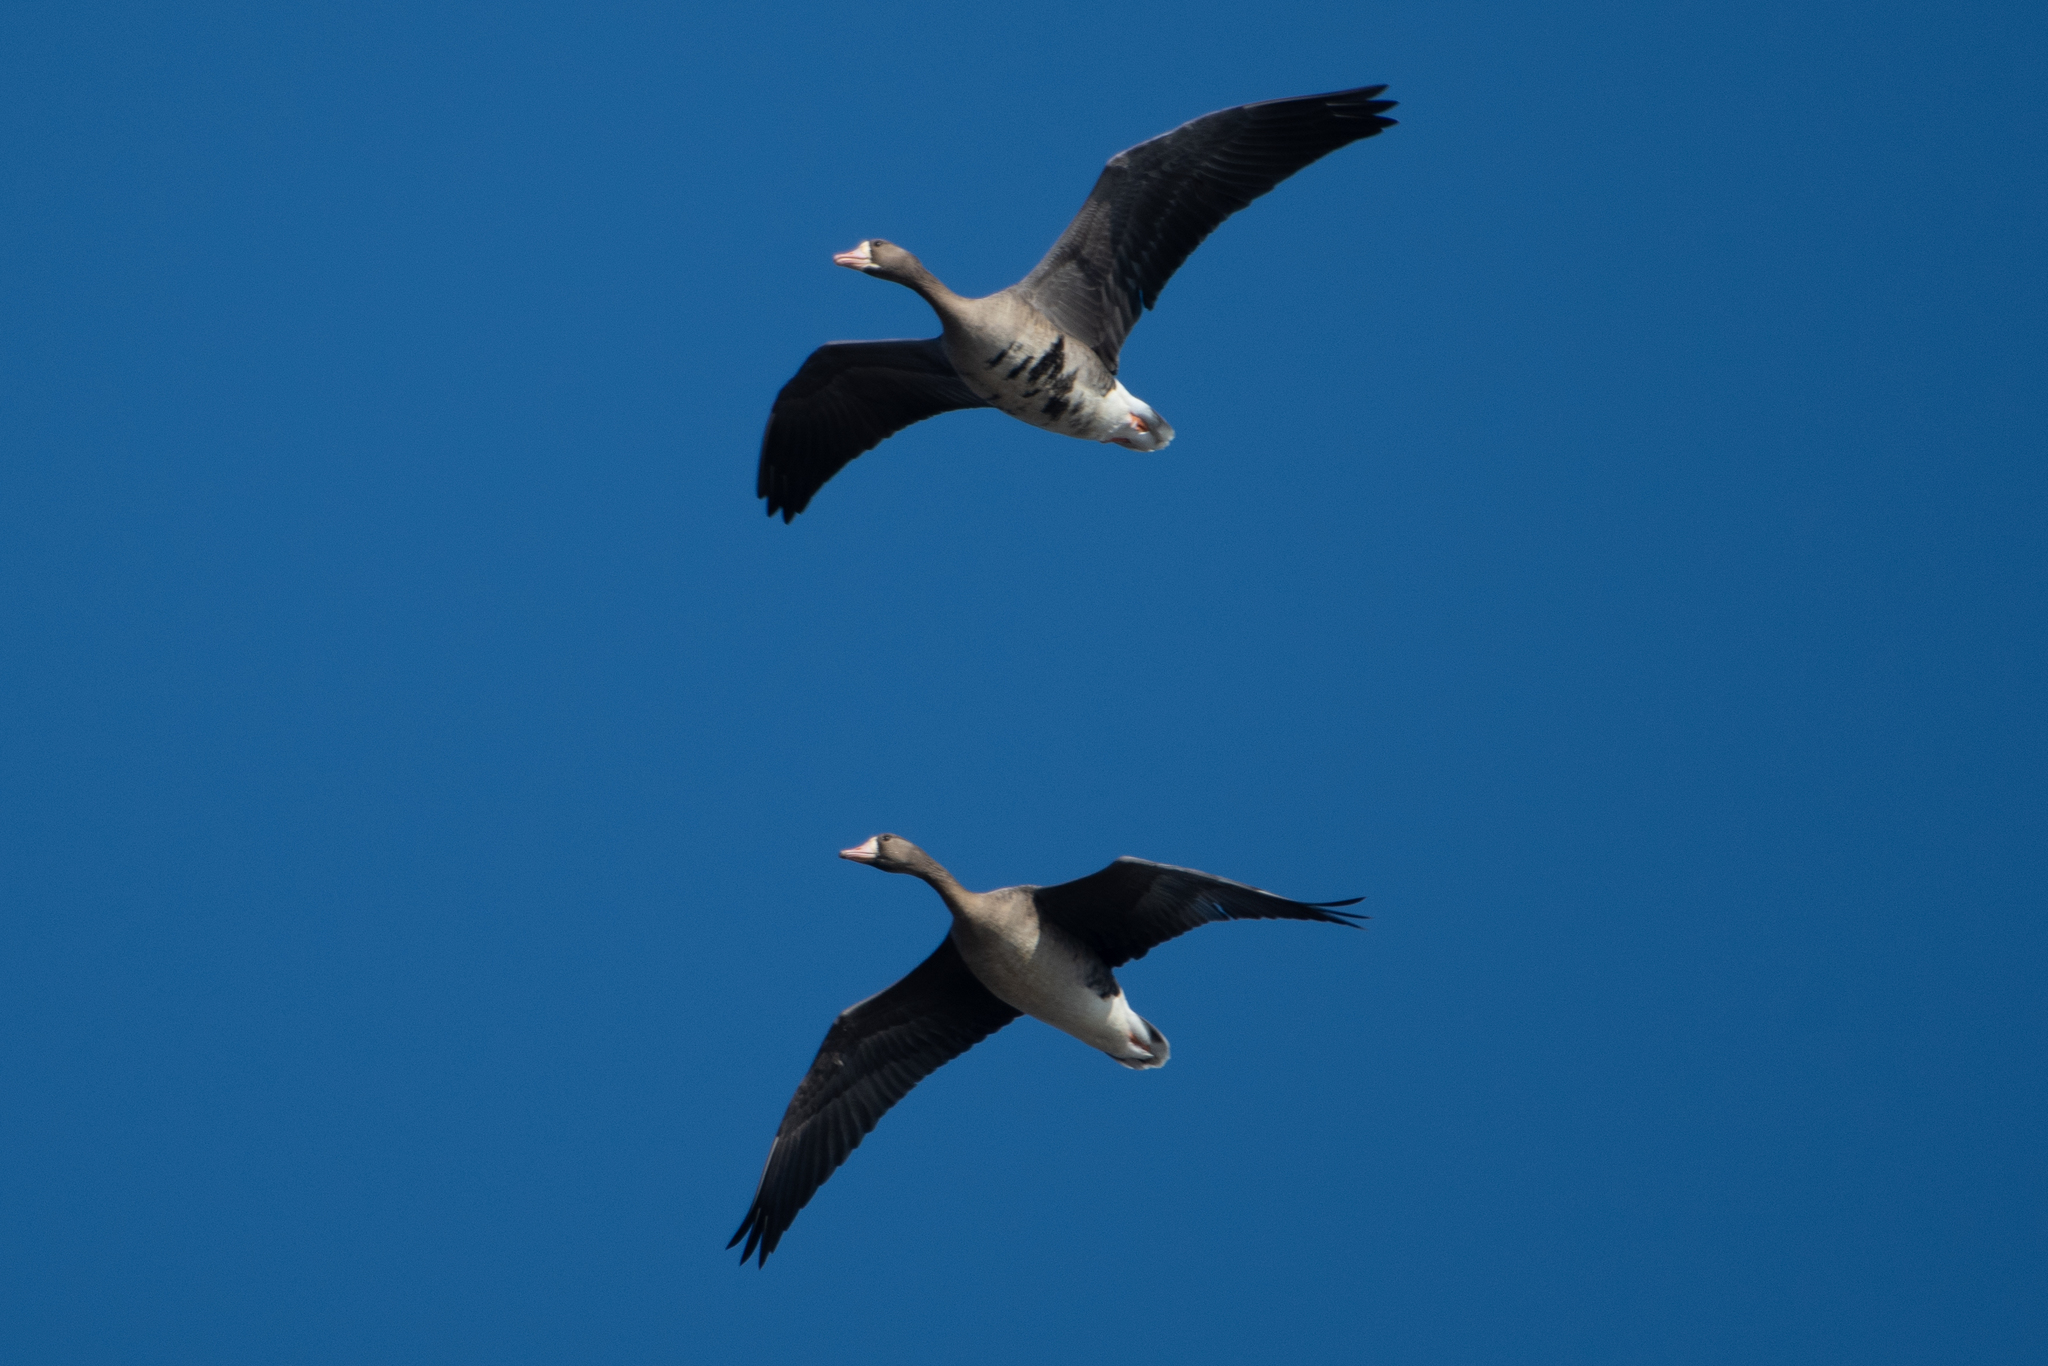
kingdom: Animalia
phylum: Chordata
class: Aves
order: Anseriformes
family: Anatidae
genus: Anser
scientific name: Anser albifrons
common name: Greater white-fronted goose
